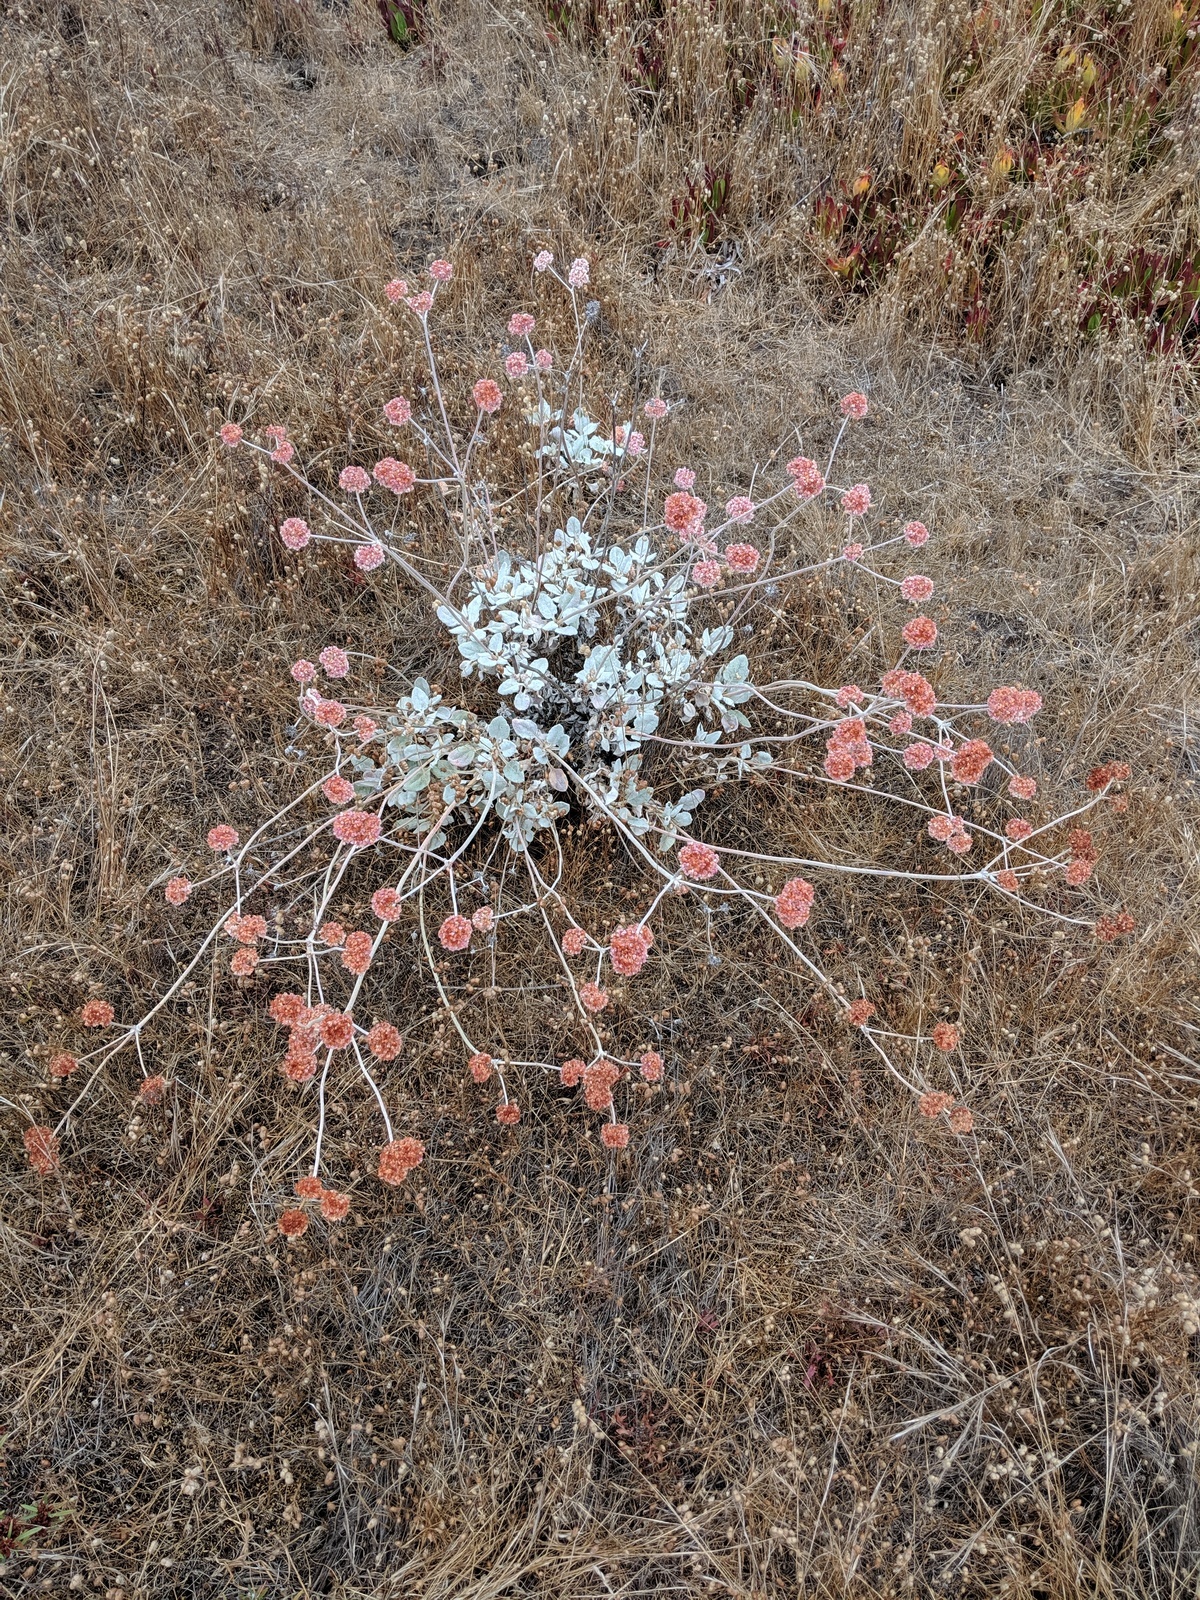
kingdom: Plantae
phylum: Tracheophyta
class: Magnoliopsida
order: Caryophyllales
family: Polygonaceae
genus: Eriogonum
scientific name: Eriogonum latifolium
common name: Seaside wild buckwheat
